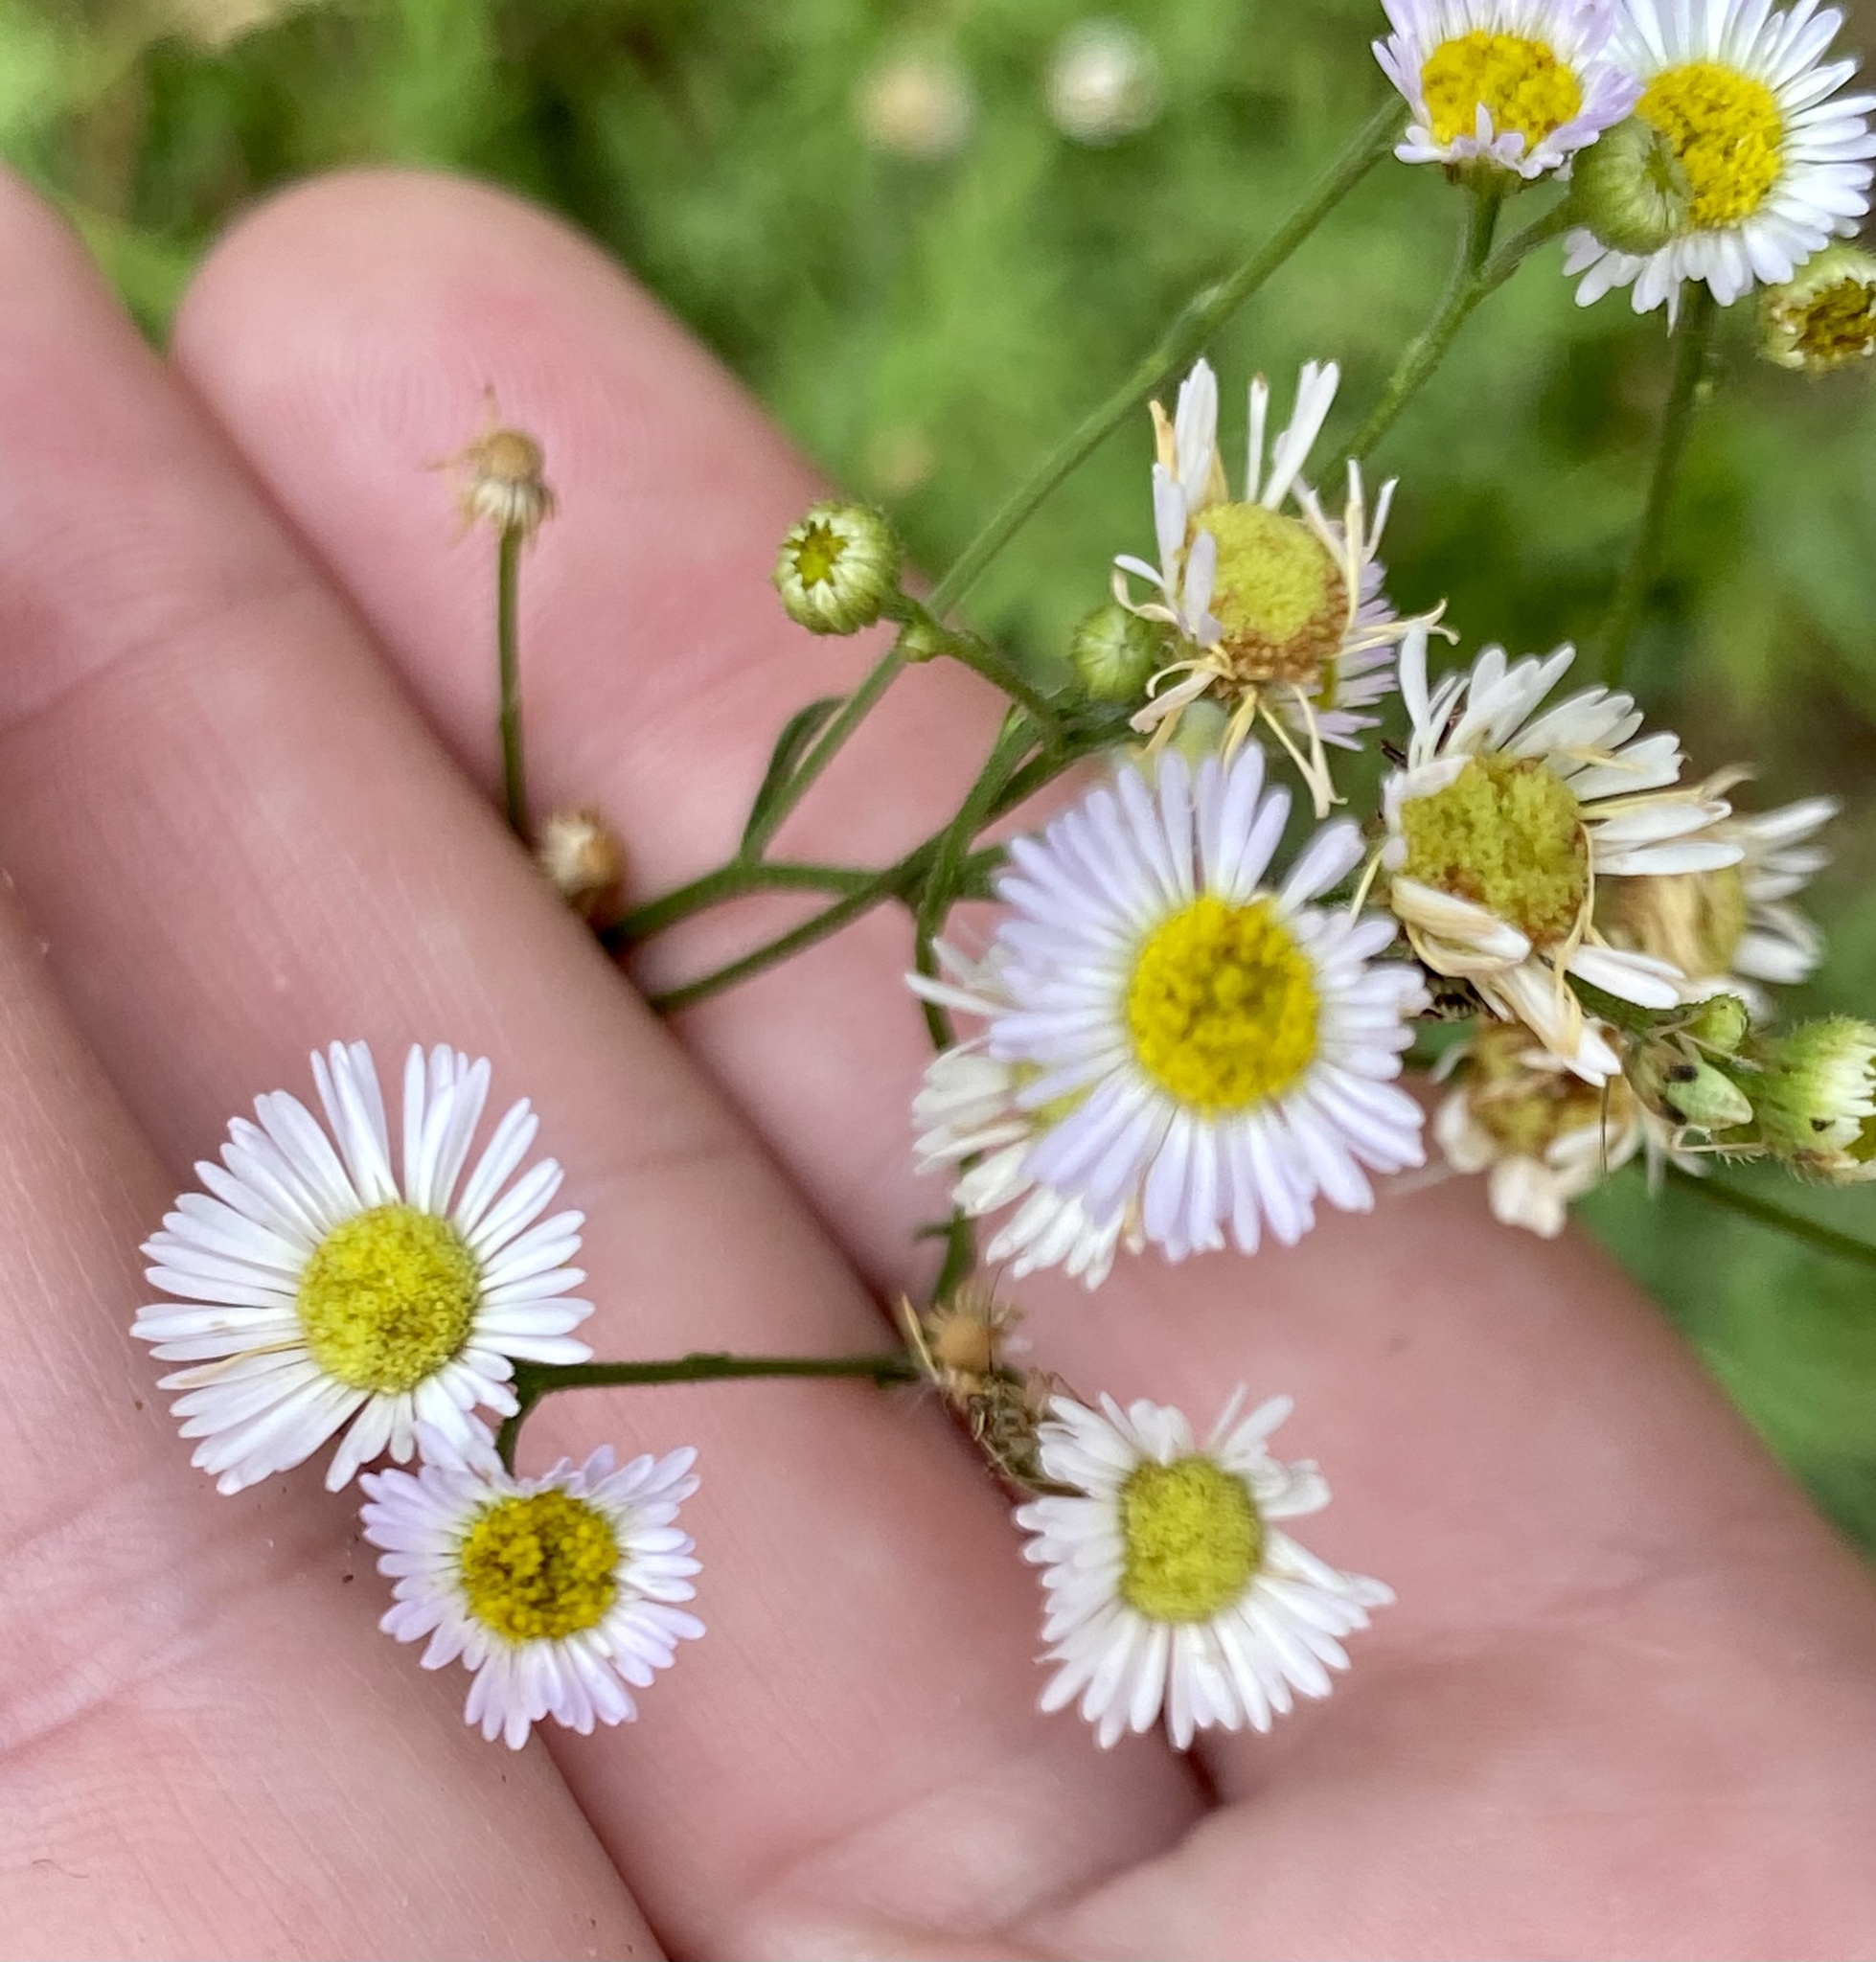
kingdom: Plantae
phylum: Tracheophyta
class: Magnoliopsida
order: Asterales
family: Asteraceae
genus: Erigeron
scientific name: Erigeron strigosus
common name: Common eastern fleabane
